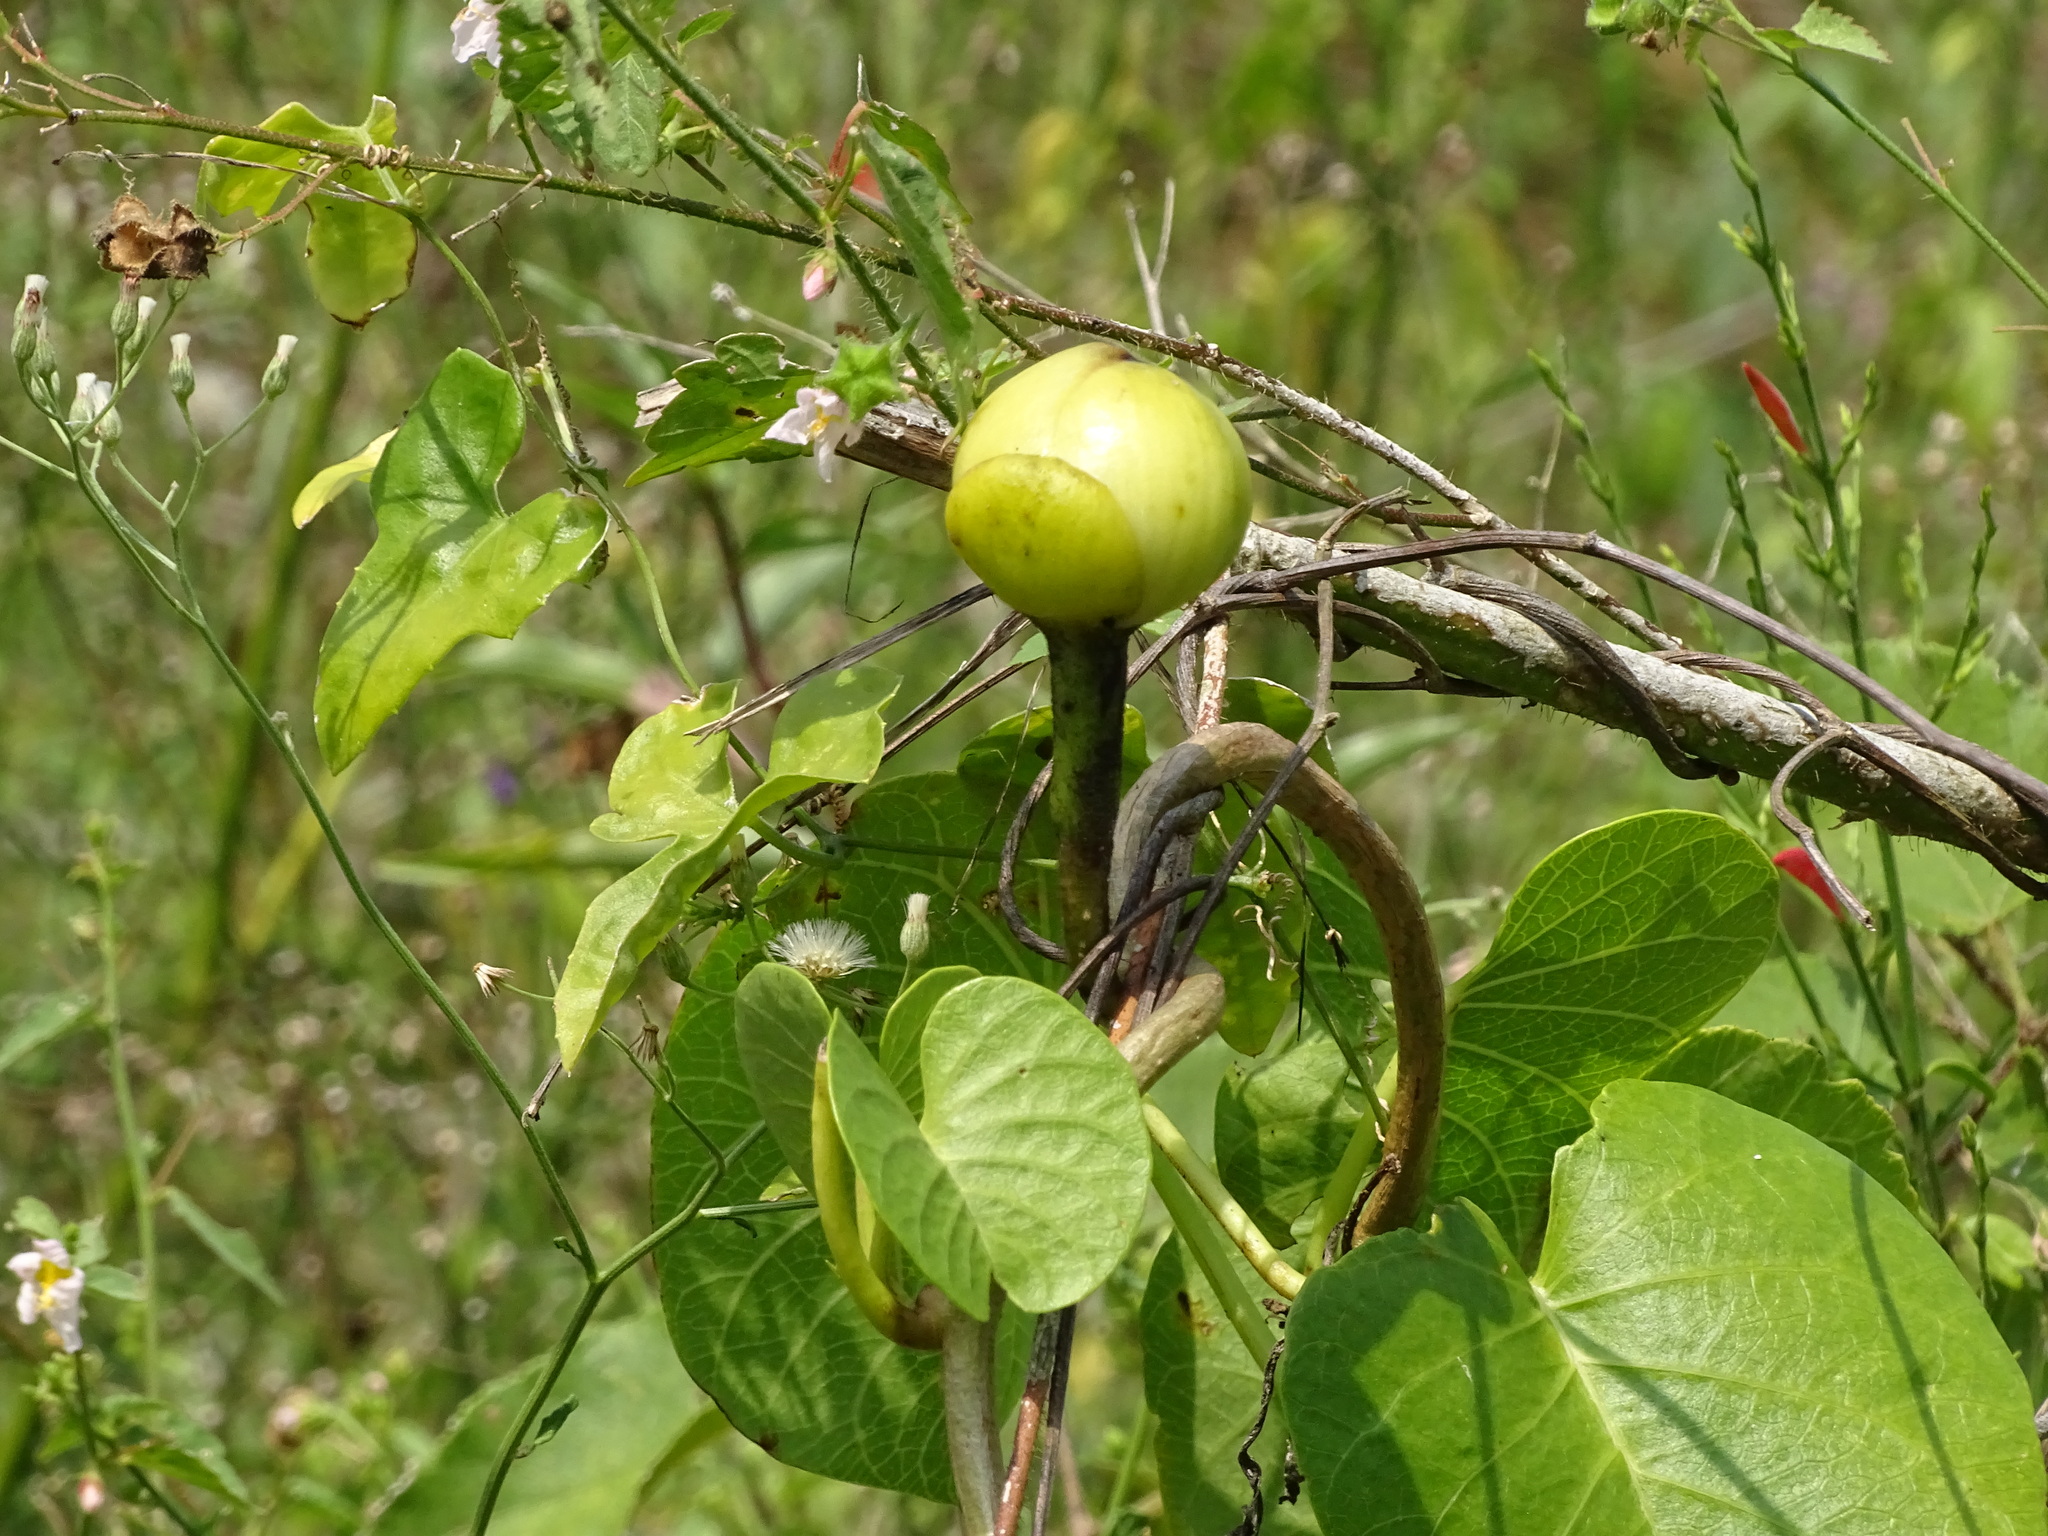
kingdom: Plantae
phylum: Tracheophyta
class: Magnoliopsida
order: Solanales
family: Convolvulaceae
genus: Ipomoea
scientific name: Ipomoea violacea
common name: Beach moonflower
